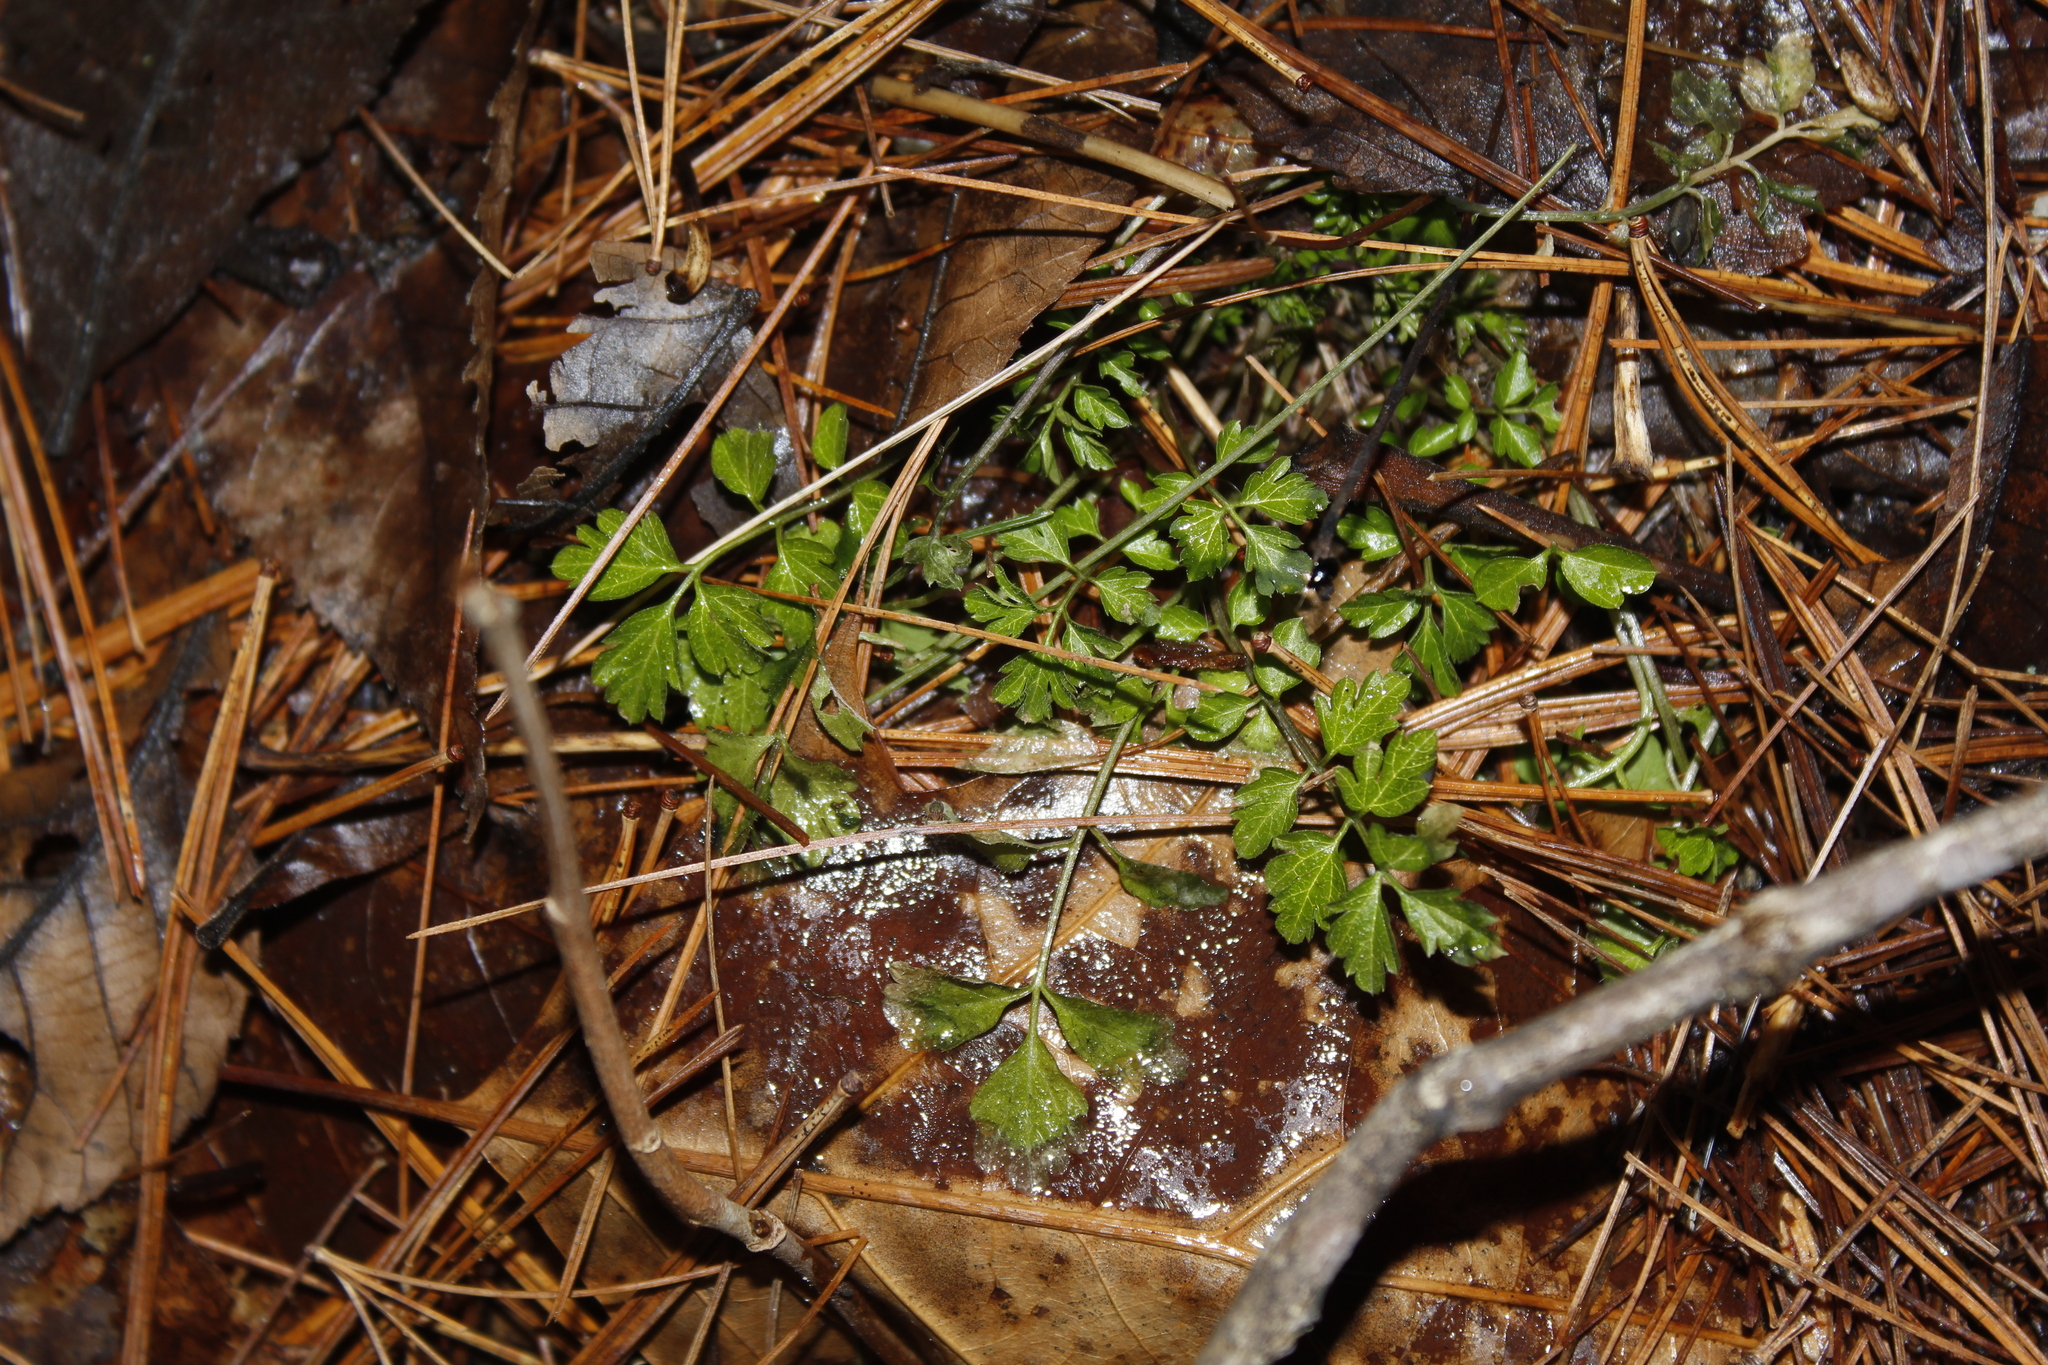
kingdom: Plantae
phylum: Tracheophyta
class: Magnoliopsida
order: Brassicales
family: Brassicaceae
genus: Cardamine
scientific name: Cardamine impatiens
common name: Narrow-leaved bitter-cress
